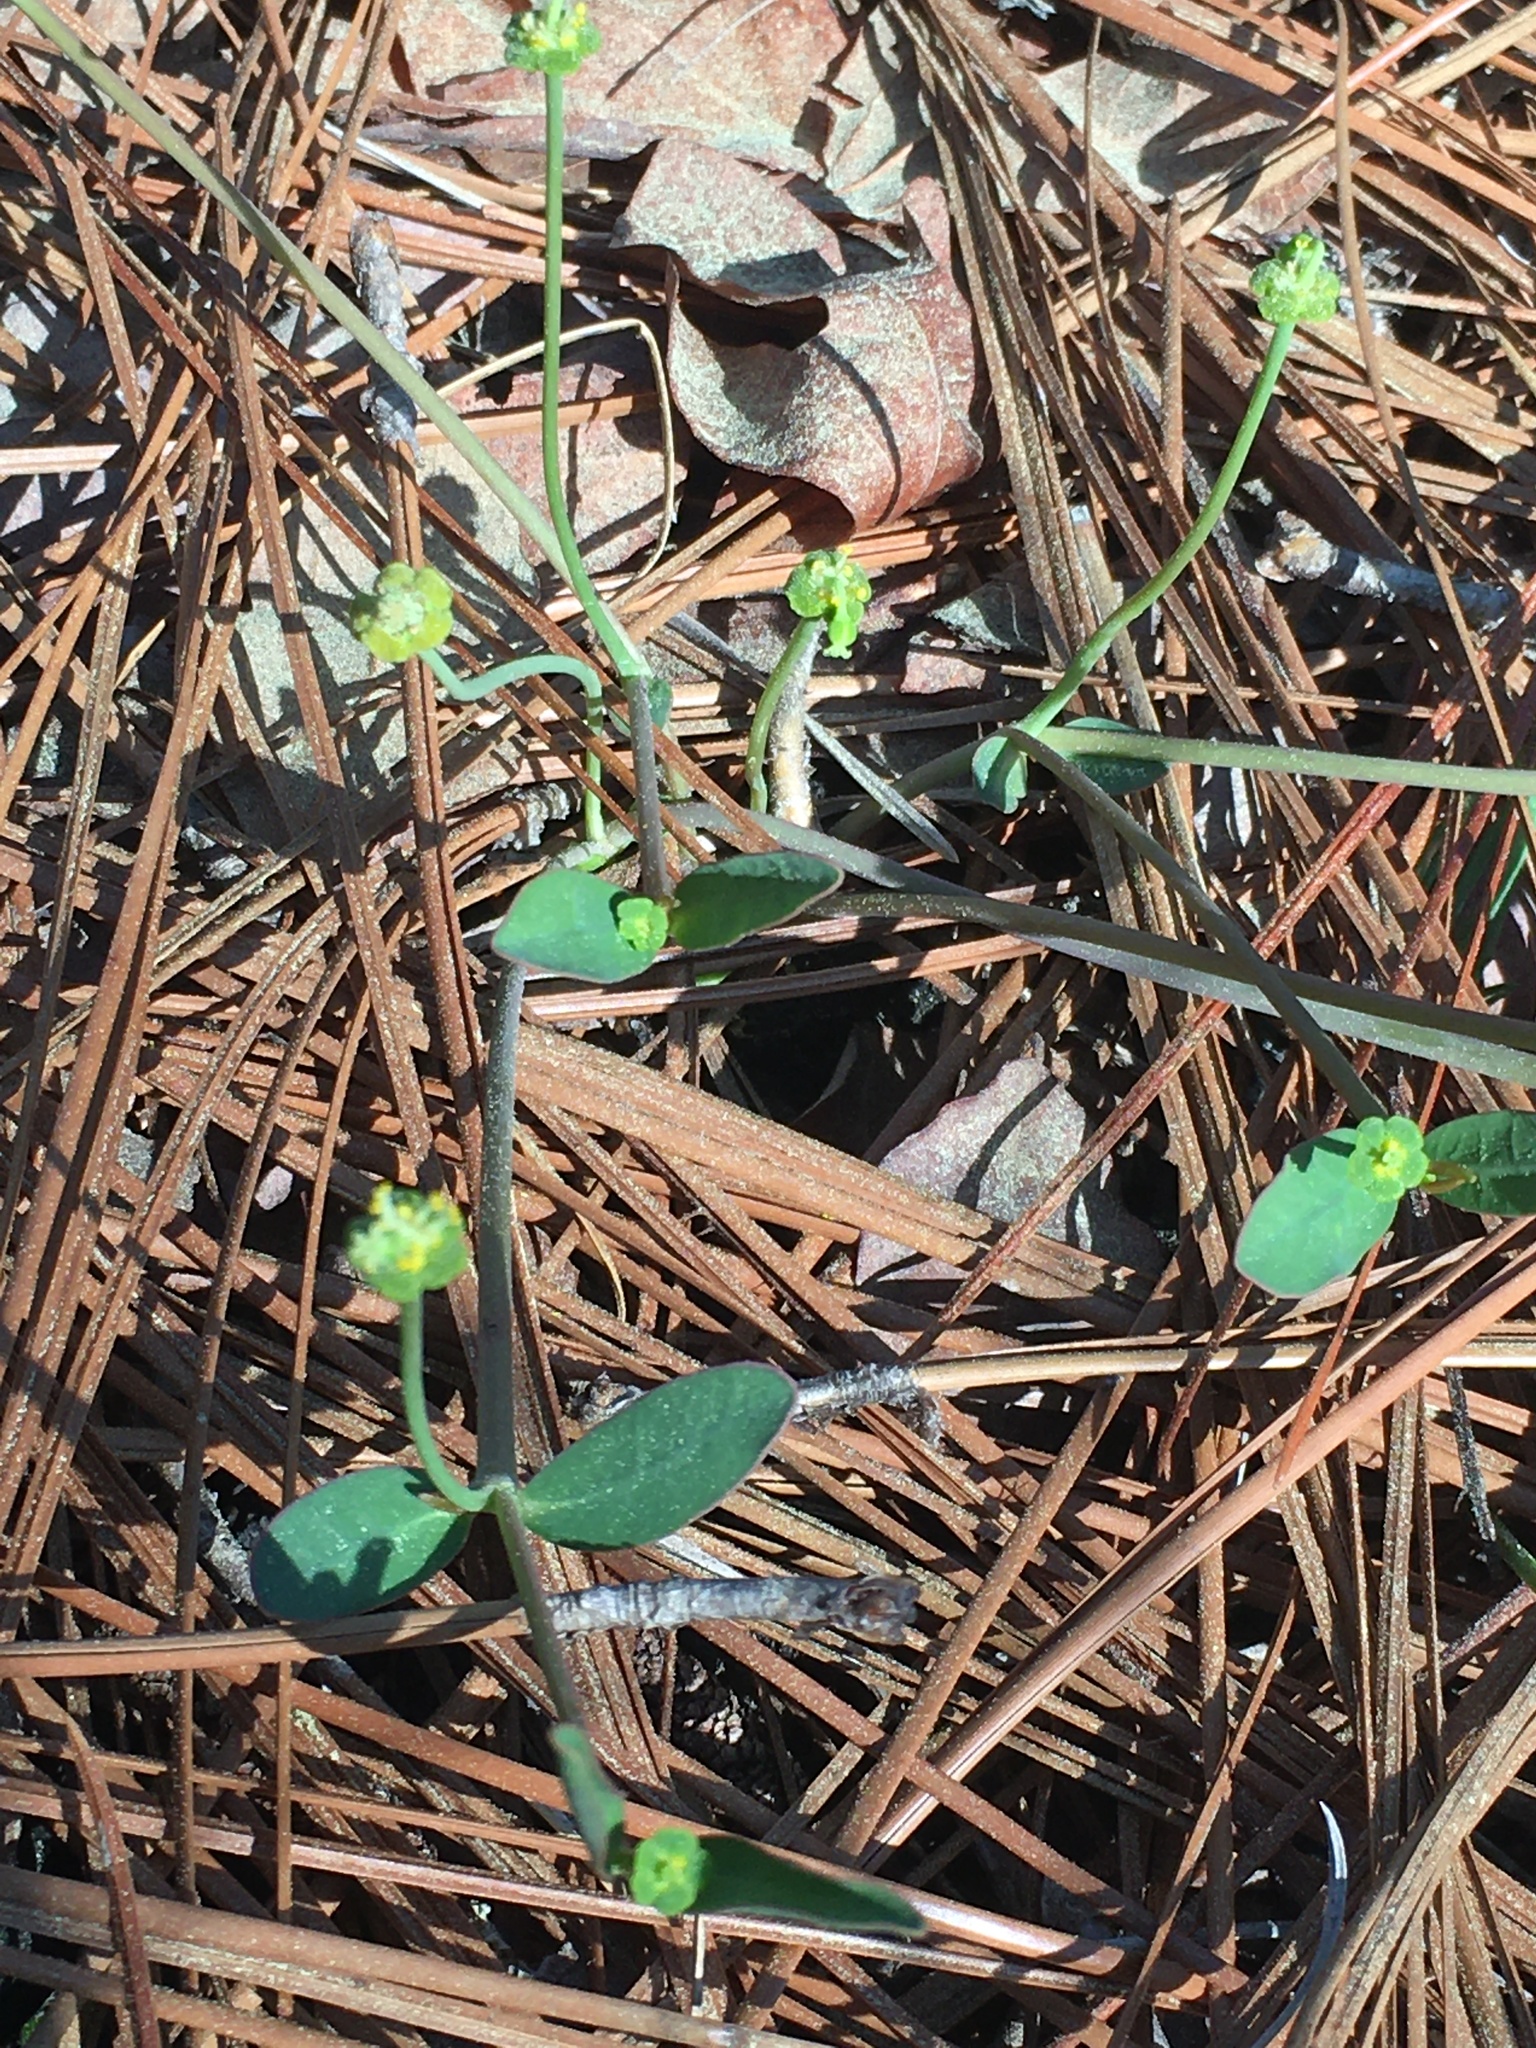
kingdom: Plantae
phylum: Tracheophyta
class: Magnoliopsida
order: Malpighiales
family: Euphorbiaceae
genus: Euphorbia
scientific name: Euphorbia ipecacuanhae
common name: Carolina ipecac
